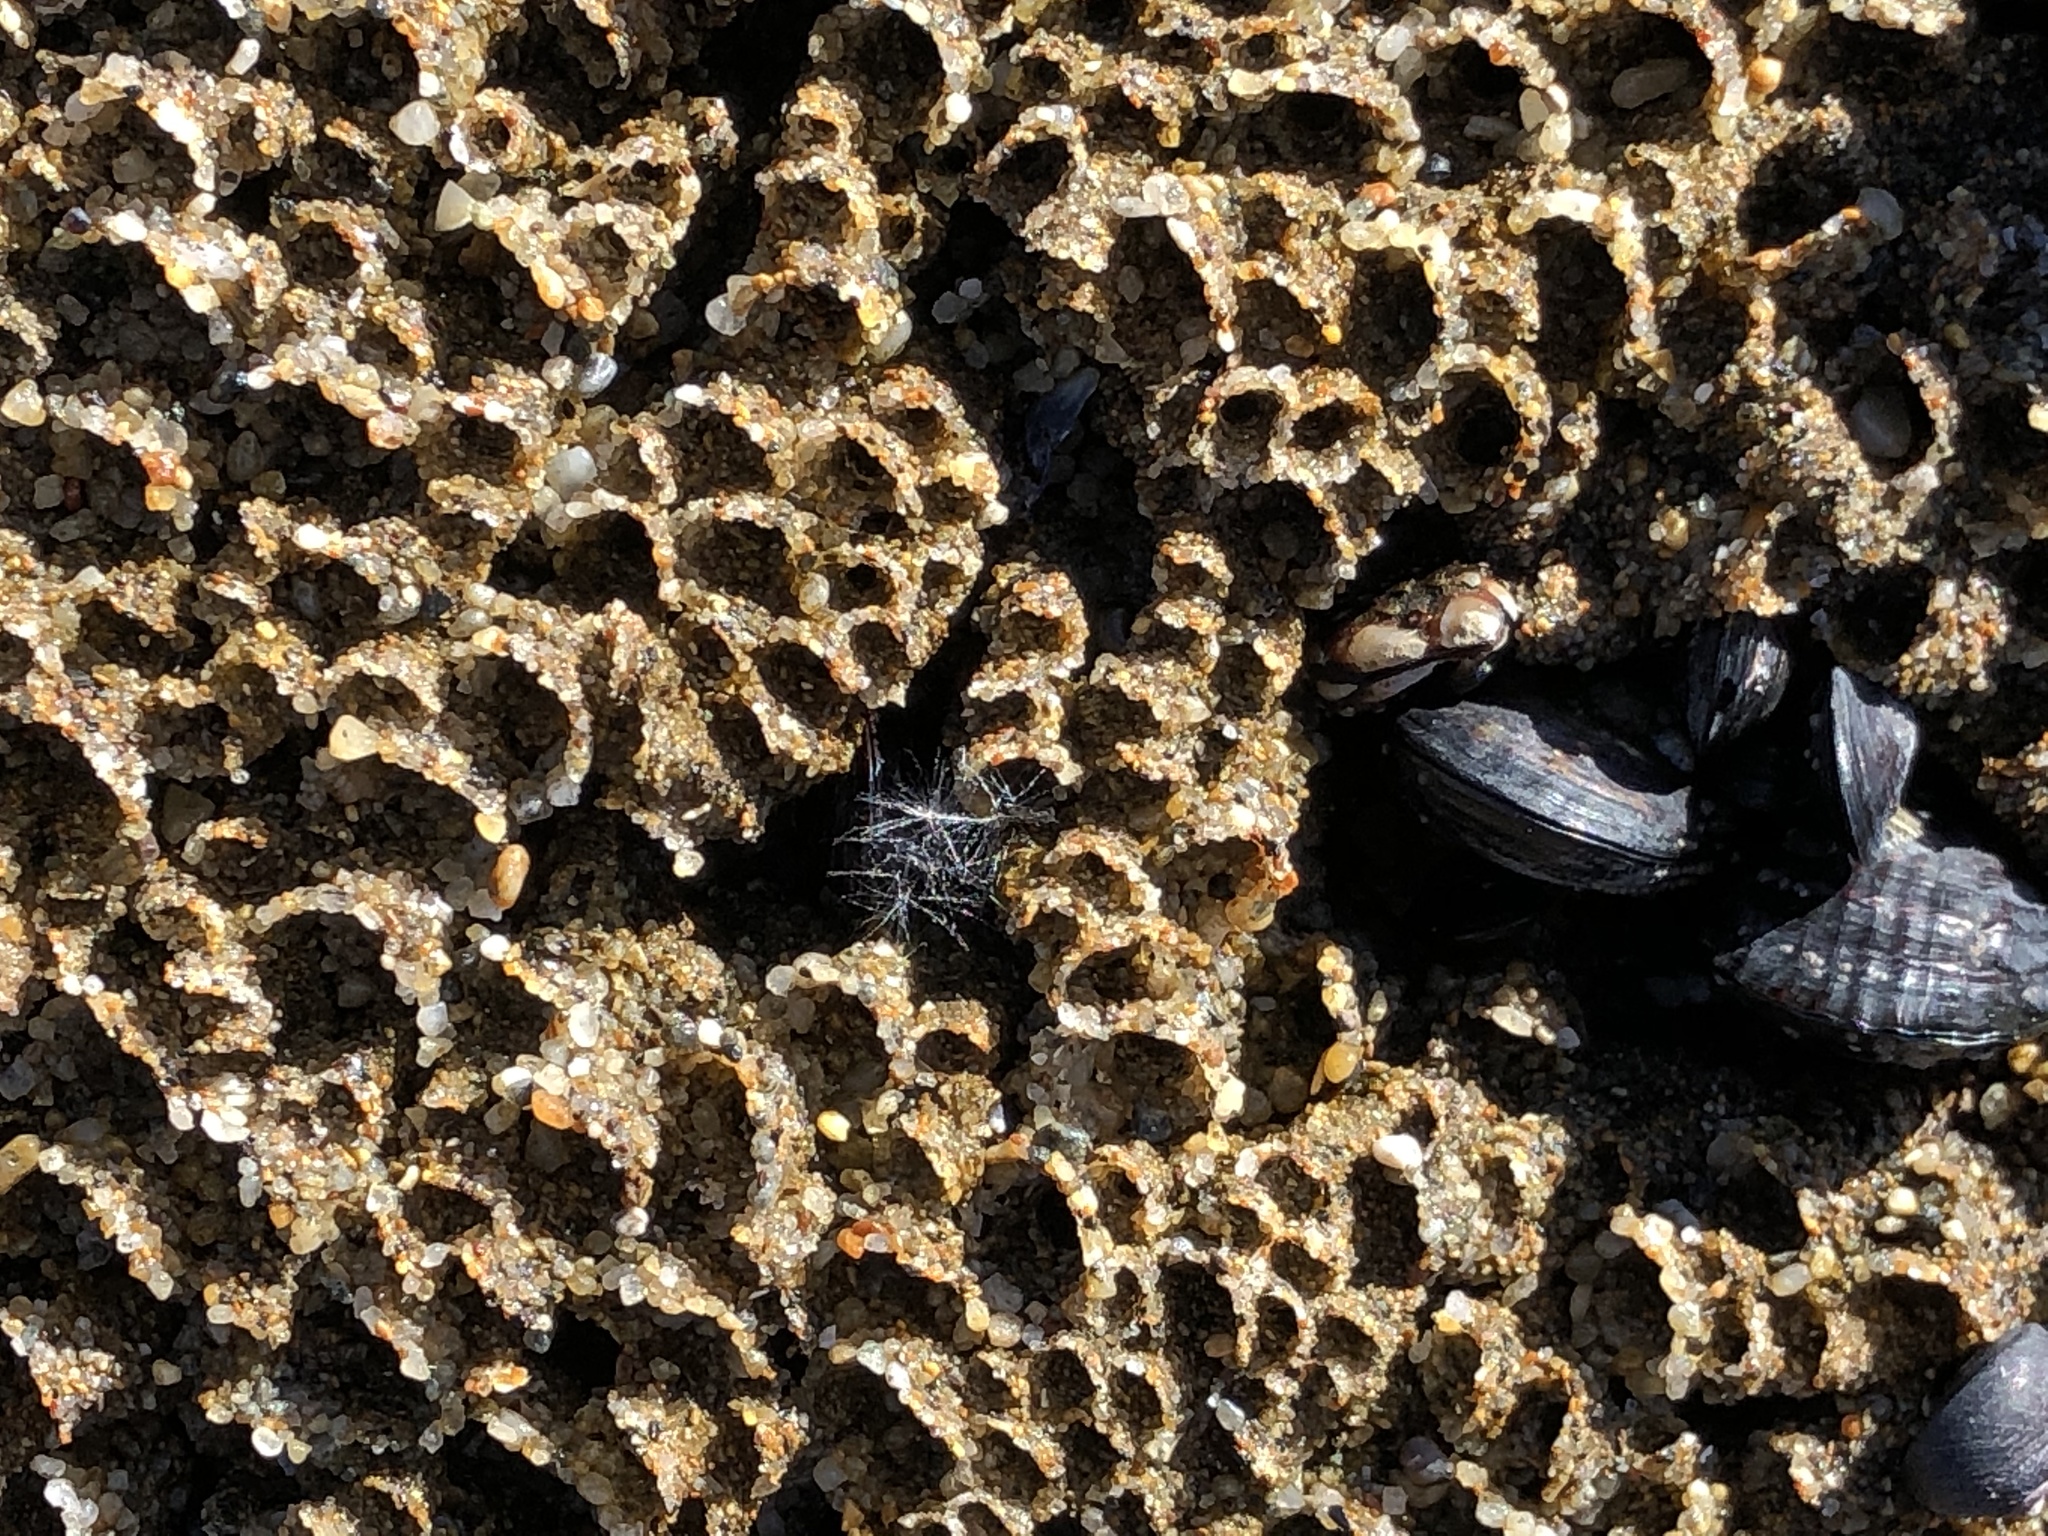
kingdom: Animalia
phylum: Annelida
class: Polychaeta
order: Sabellida
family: Sabellariidae
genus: Phragmatopoma
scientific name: Phragmatopoma californica
